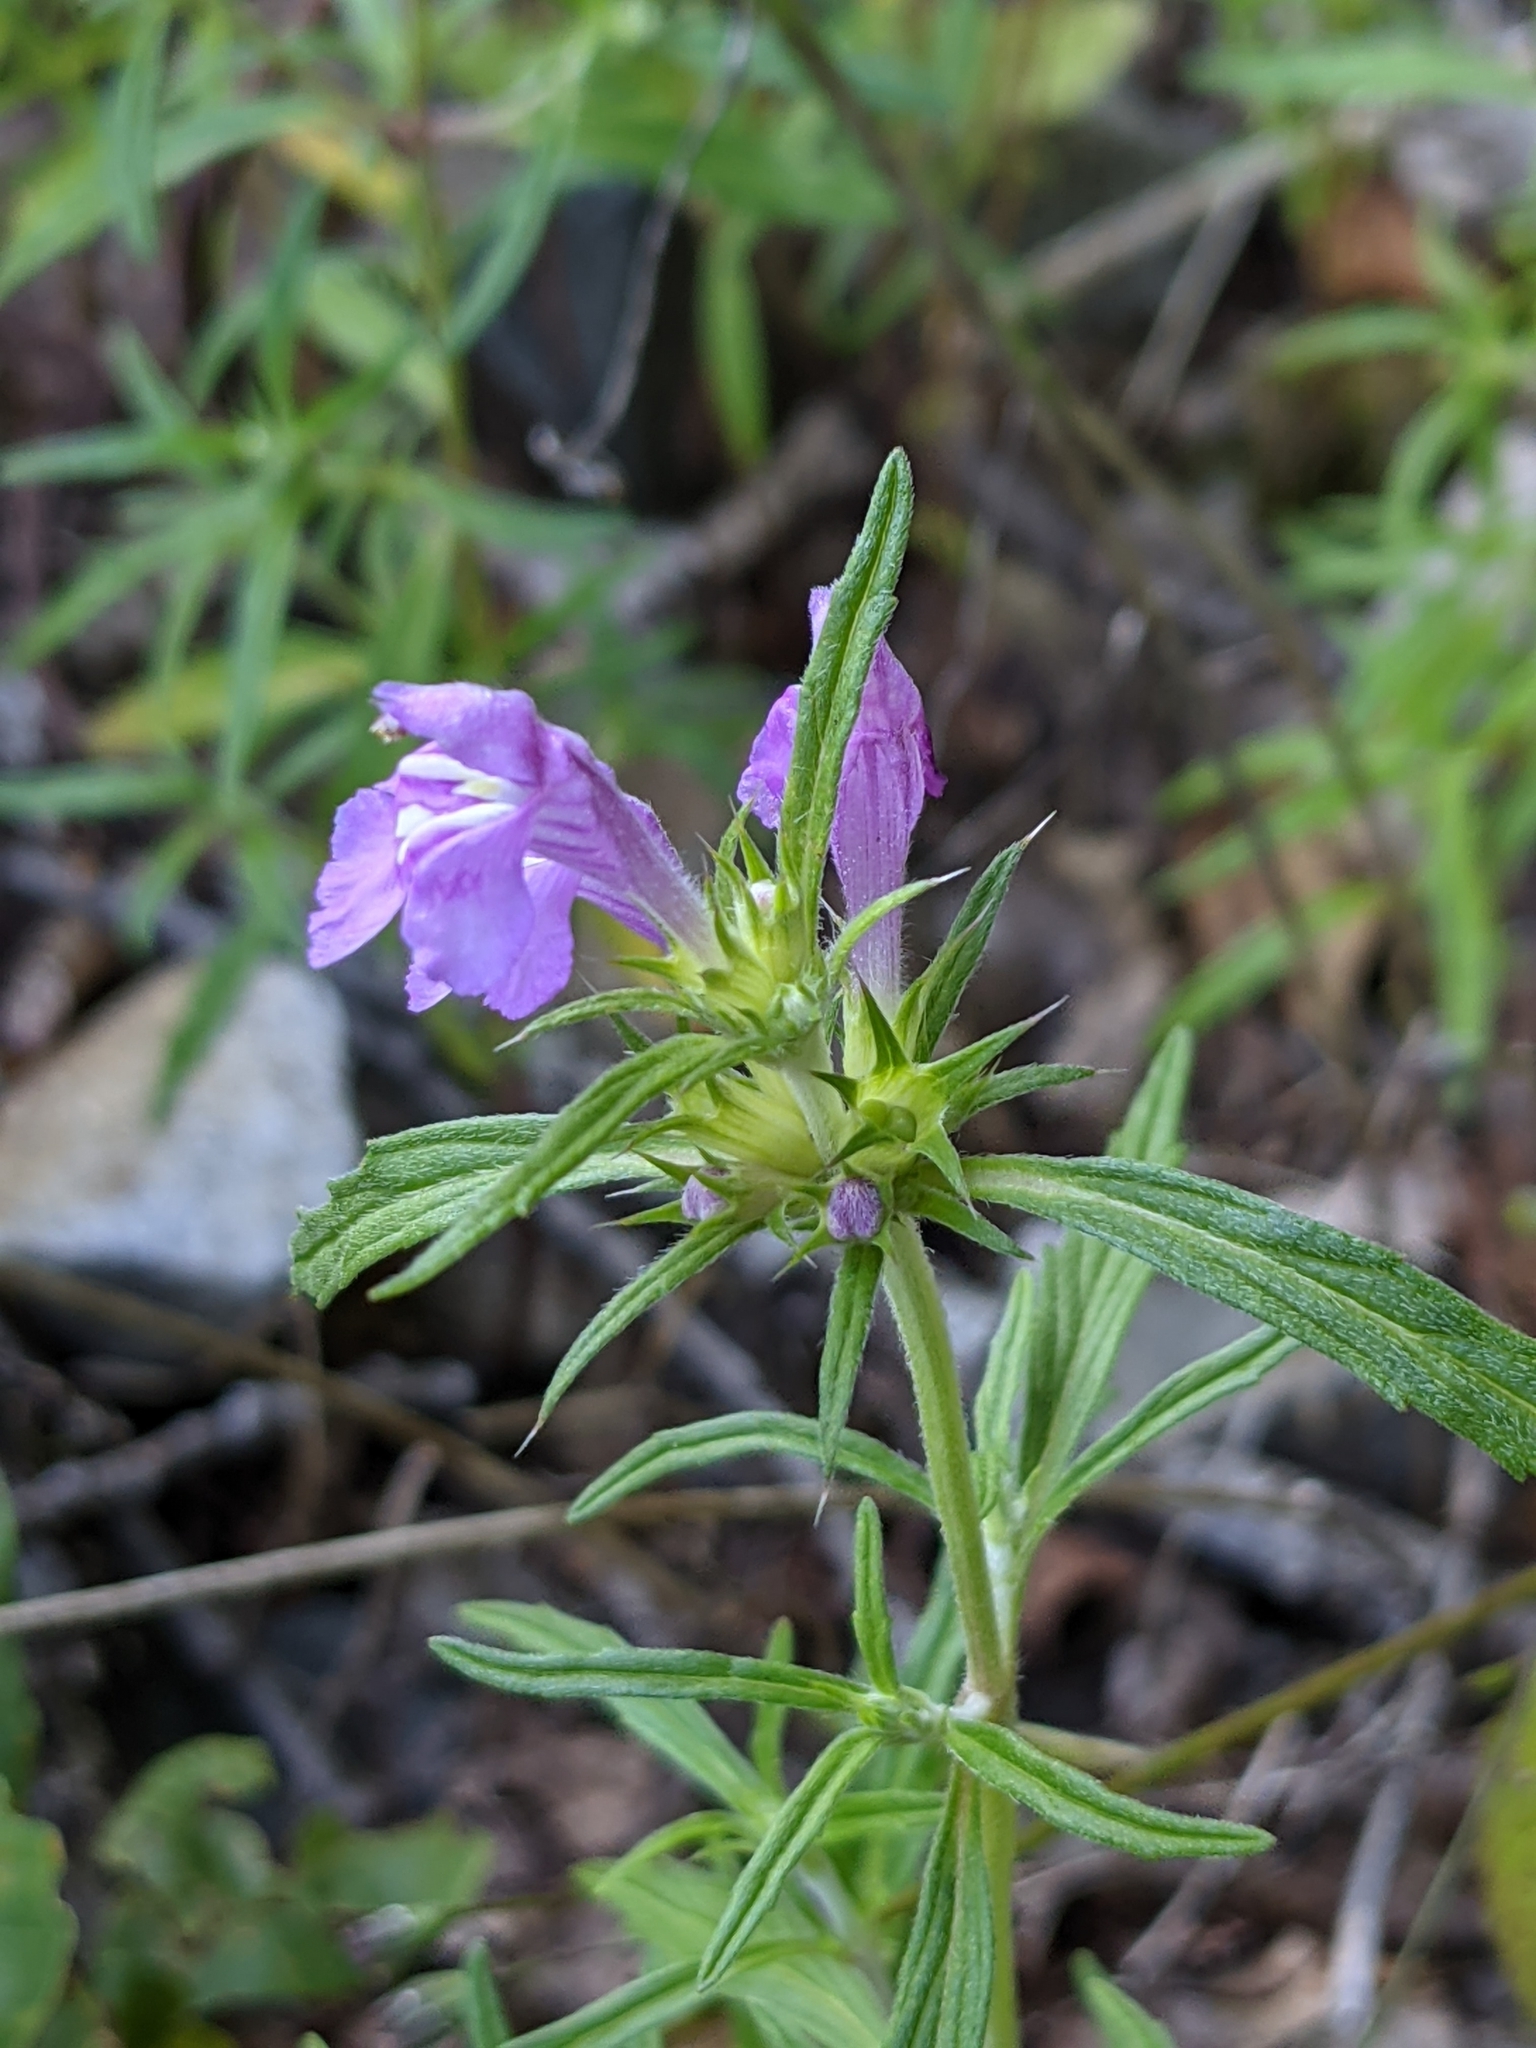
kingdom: Plantae
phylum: Tracheophyta
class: Magnoliopsida
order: Lamiales
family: Lamiaceae
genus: Galeopsis
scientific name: Galeopsis angustifolia
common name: Red hemp-nettle
